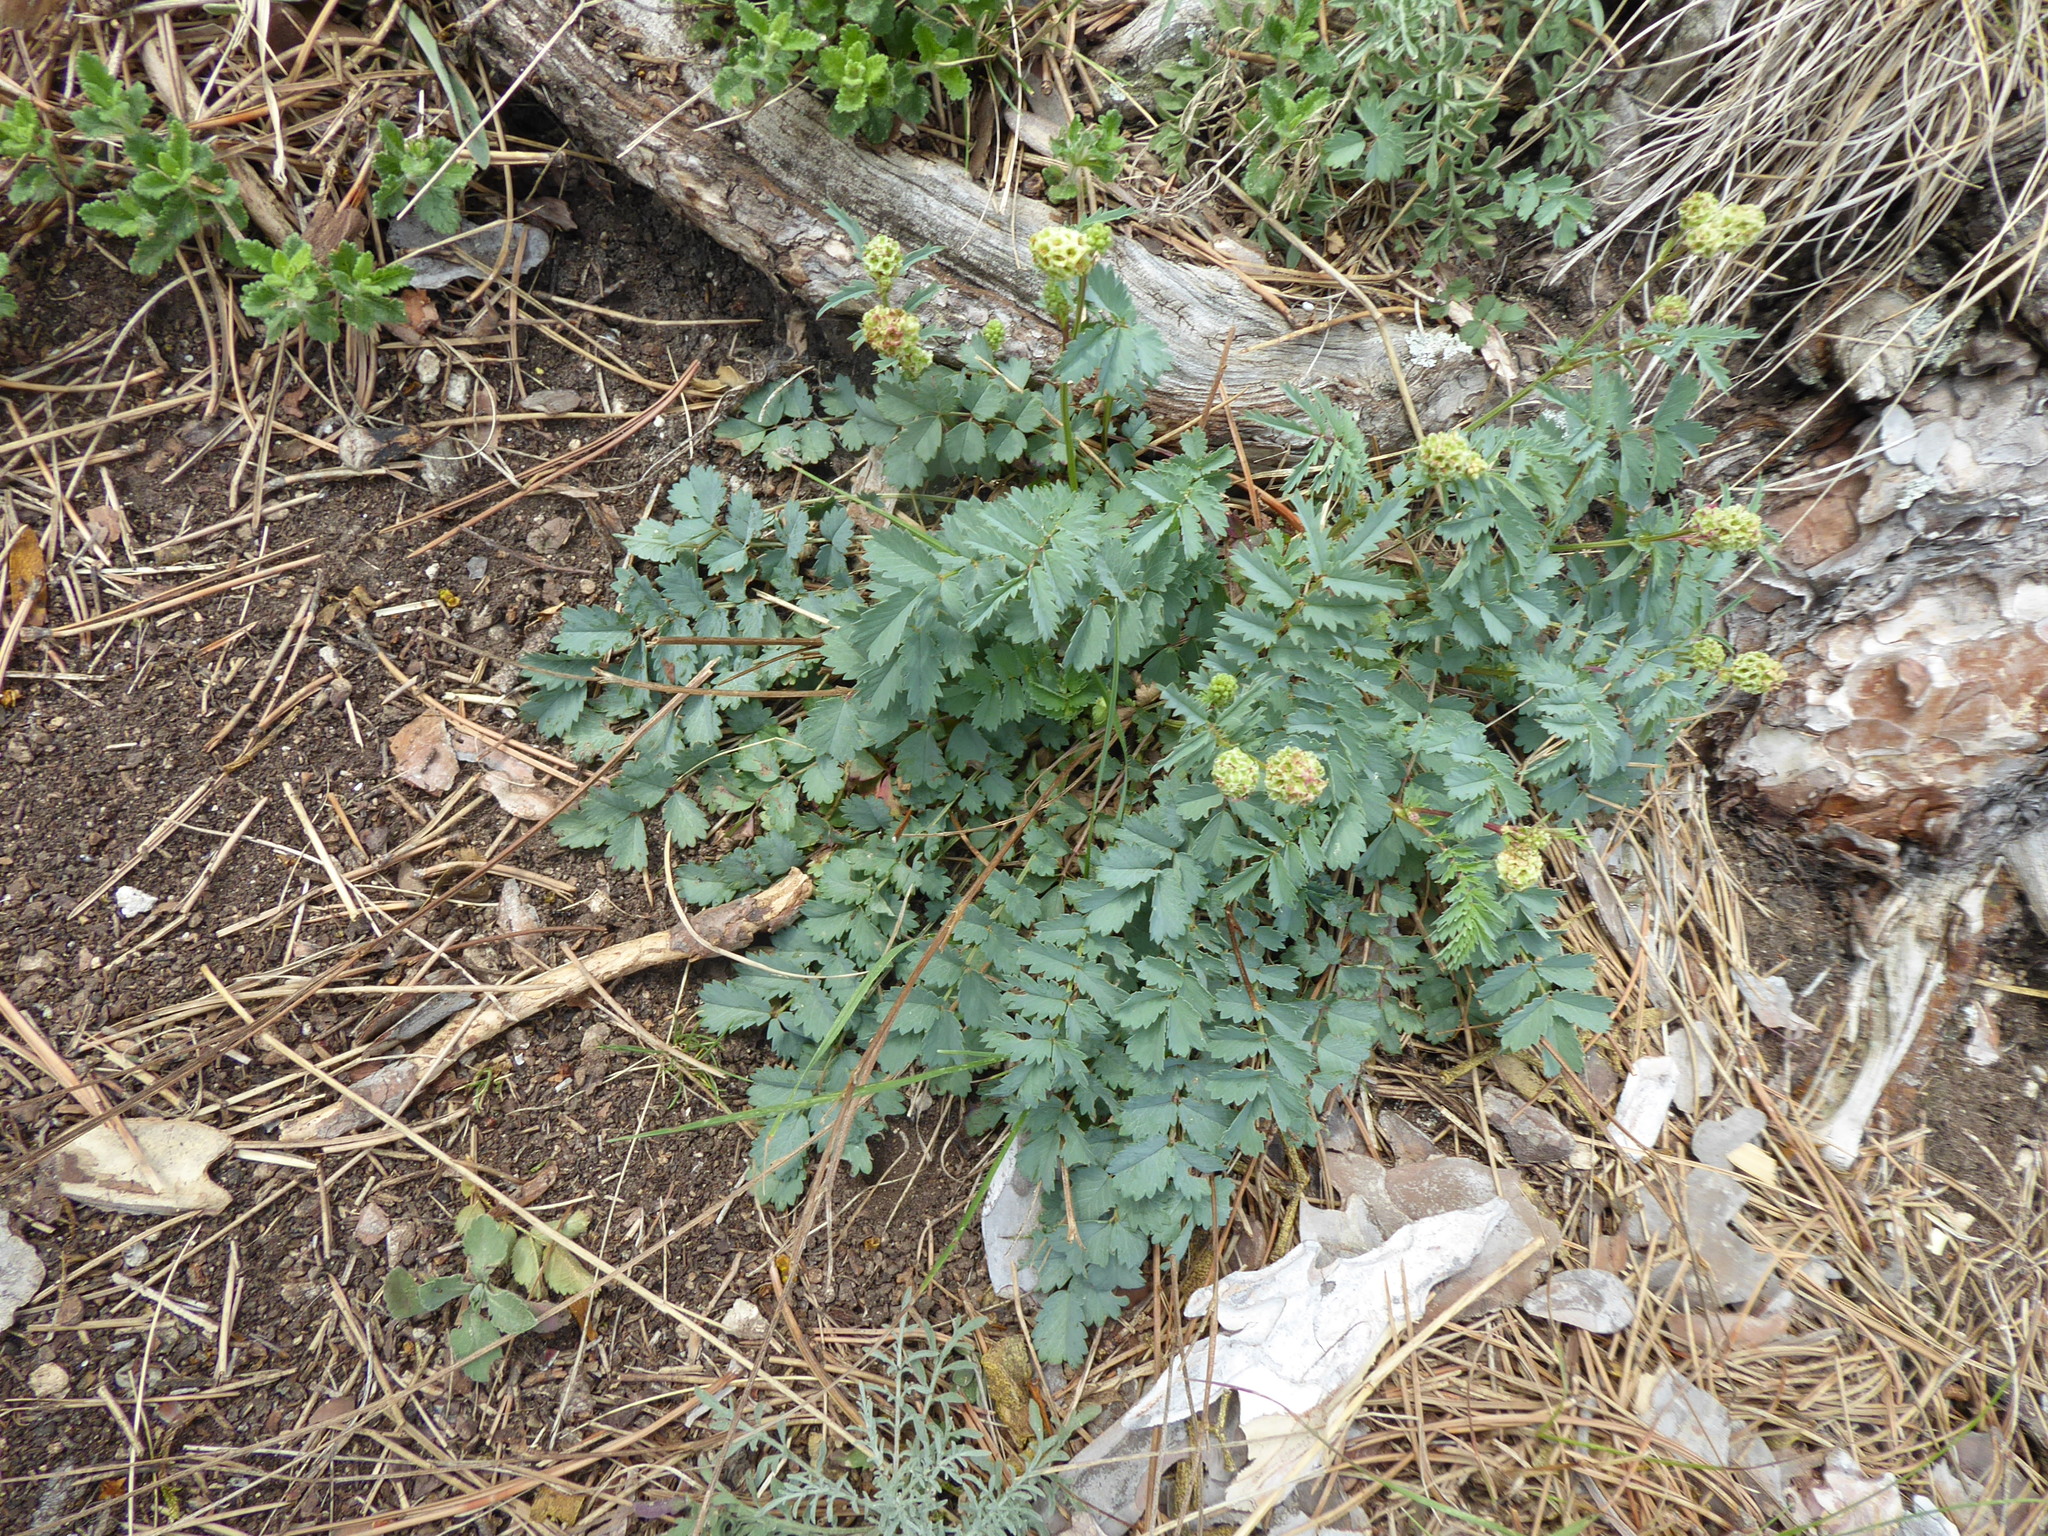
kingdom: Plantae
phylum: Tracheophyta
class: Magnoliopsida
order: Rosales
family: Rosaceae
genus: Poterium
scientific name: Poterium sanguisorba
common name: Salad burnet
